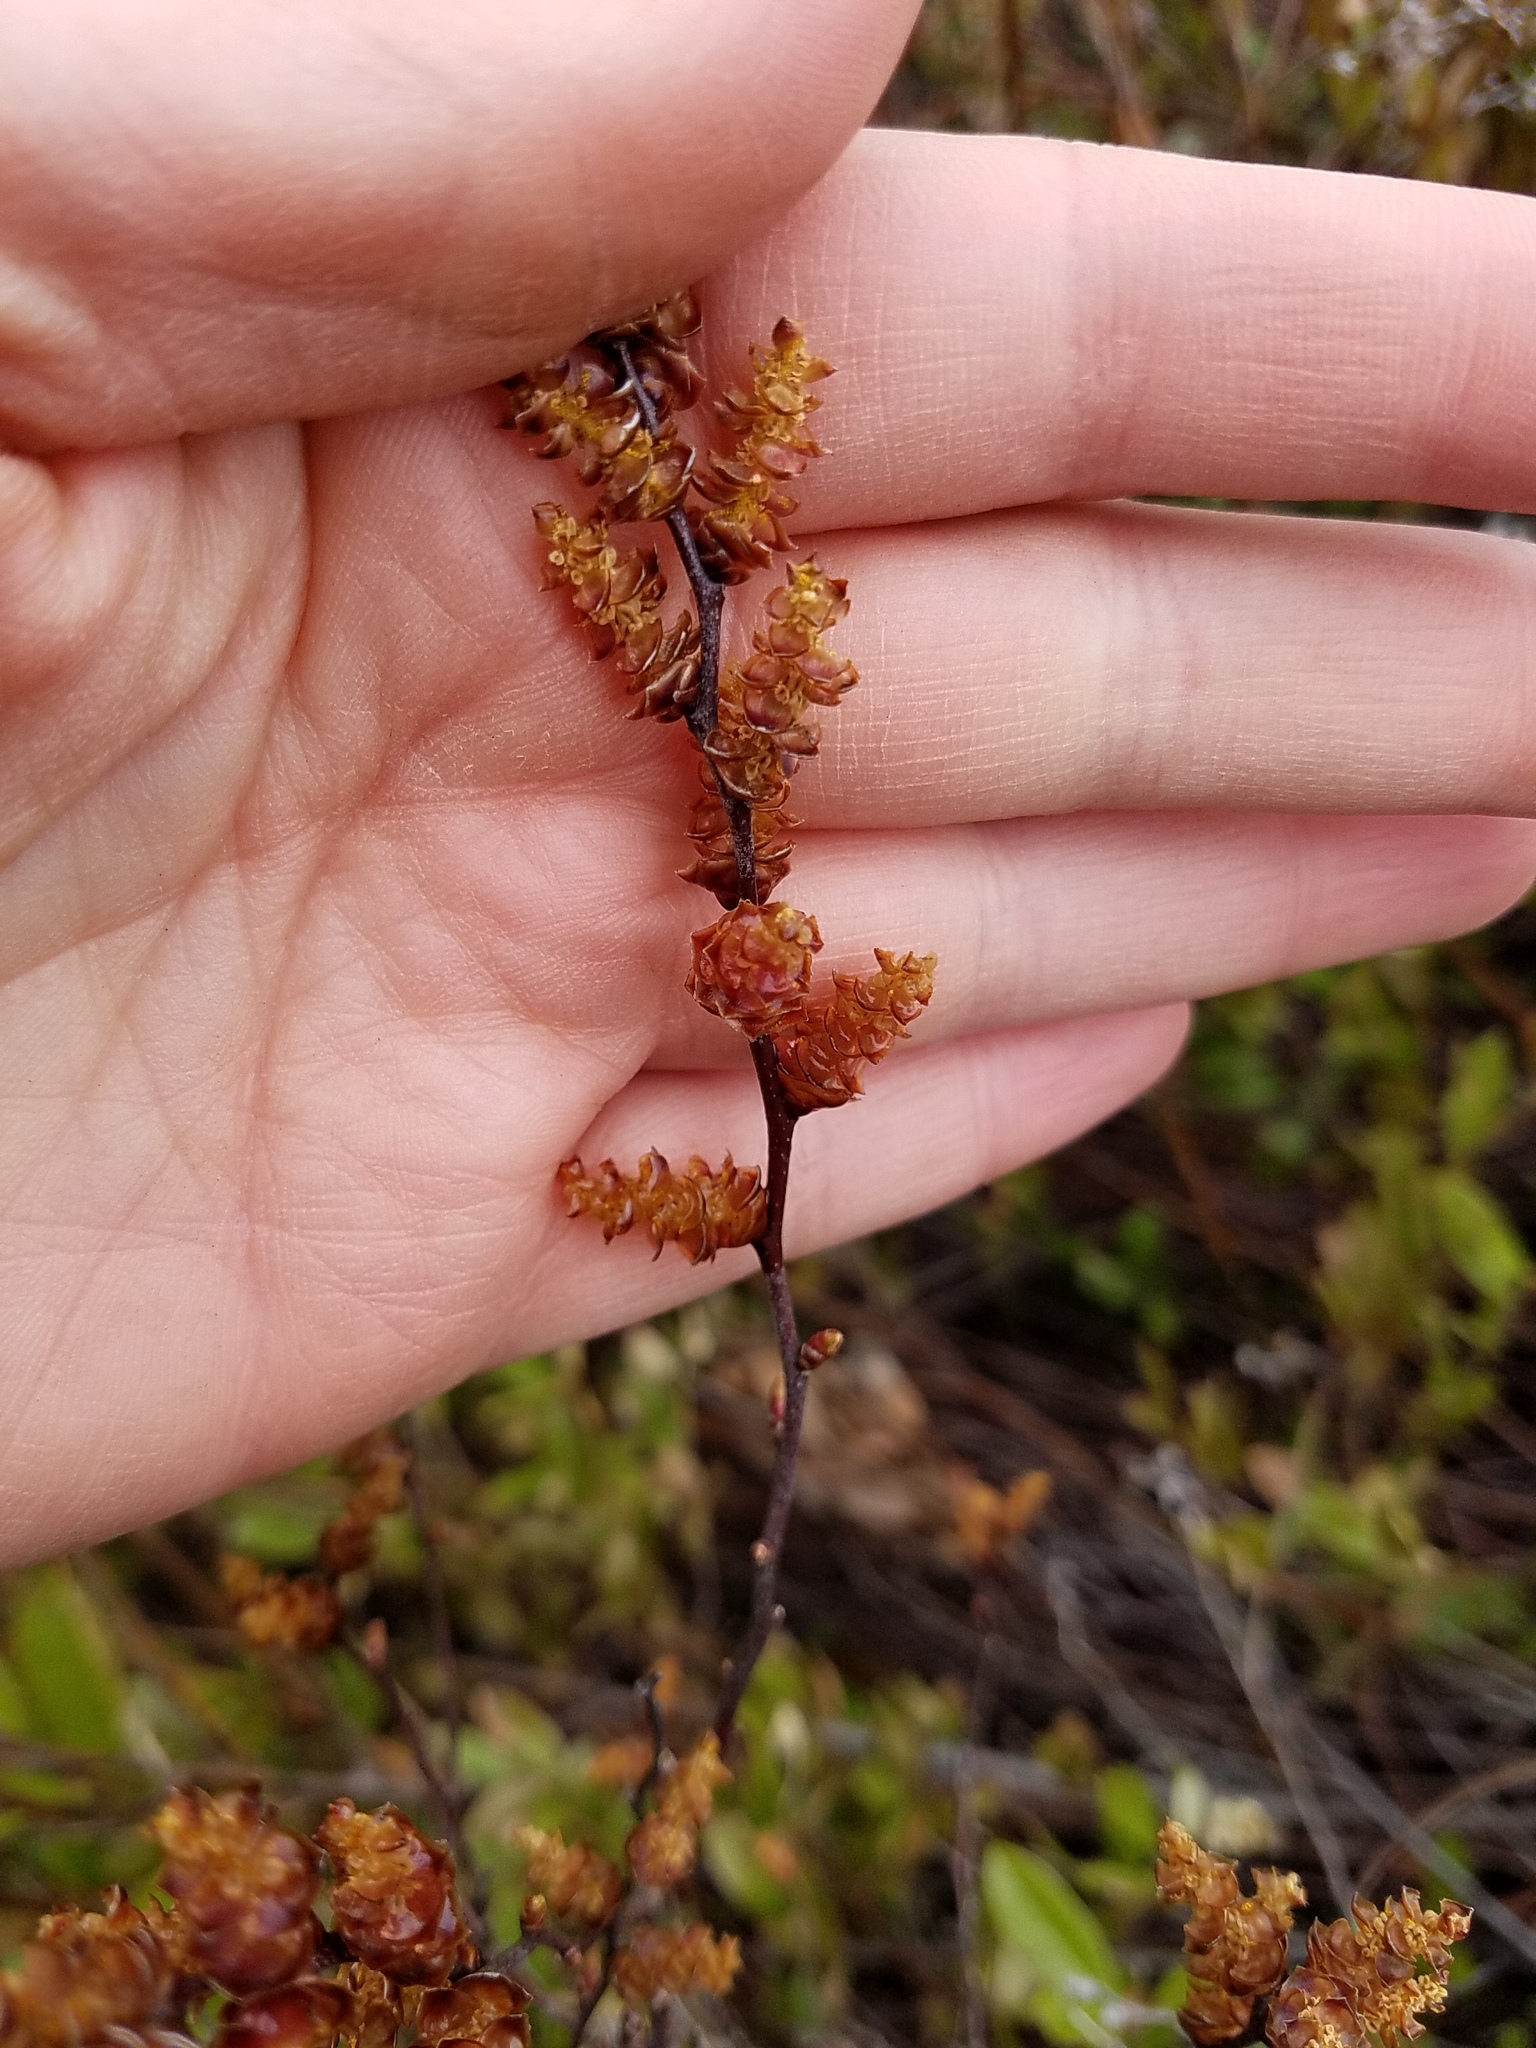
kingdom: Plantae
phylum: Tracheophyta
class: Magnoliopsida
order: Fagales
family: Myricaceae
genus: Myrica
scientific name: Myrica gale
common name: Sweet gale
